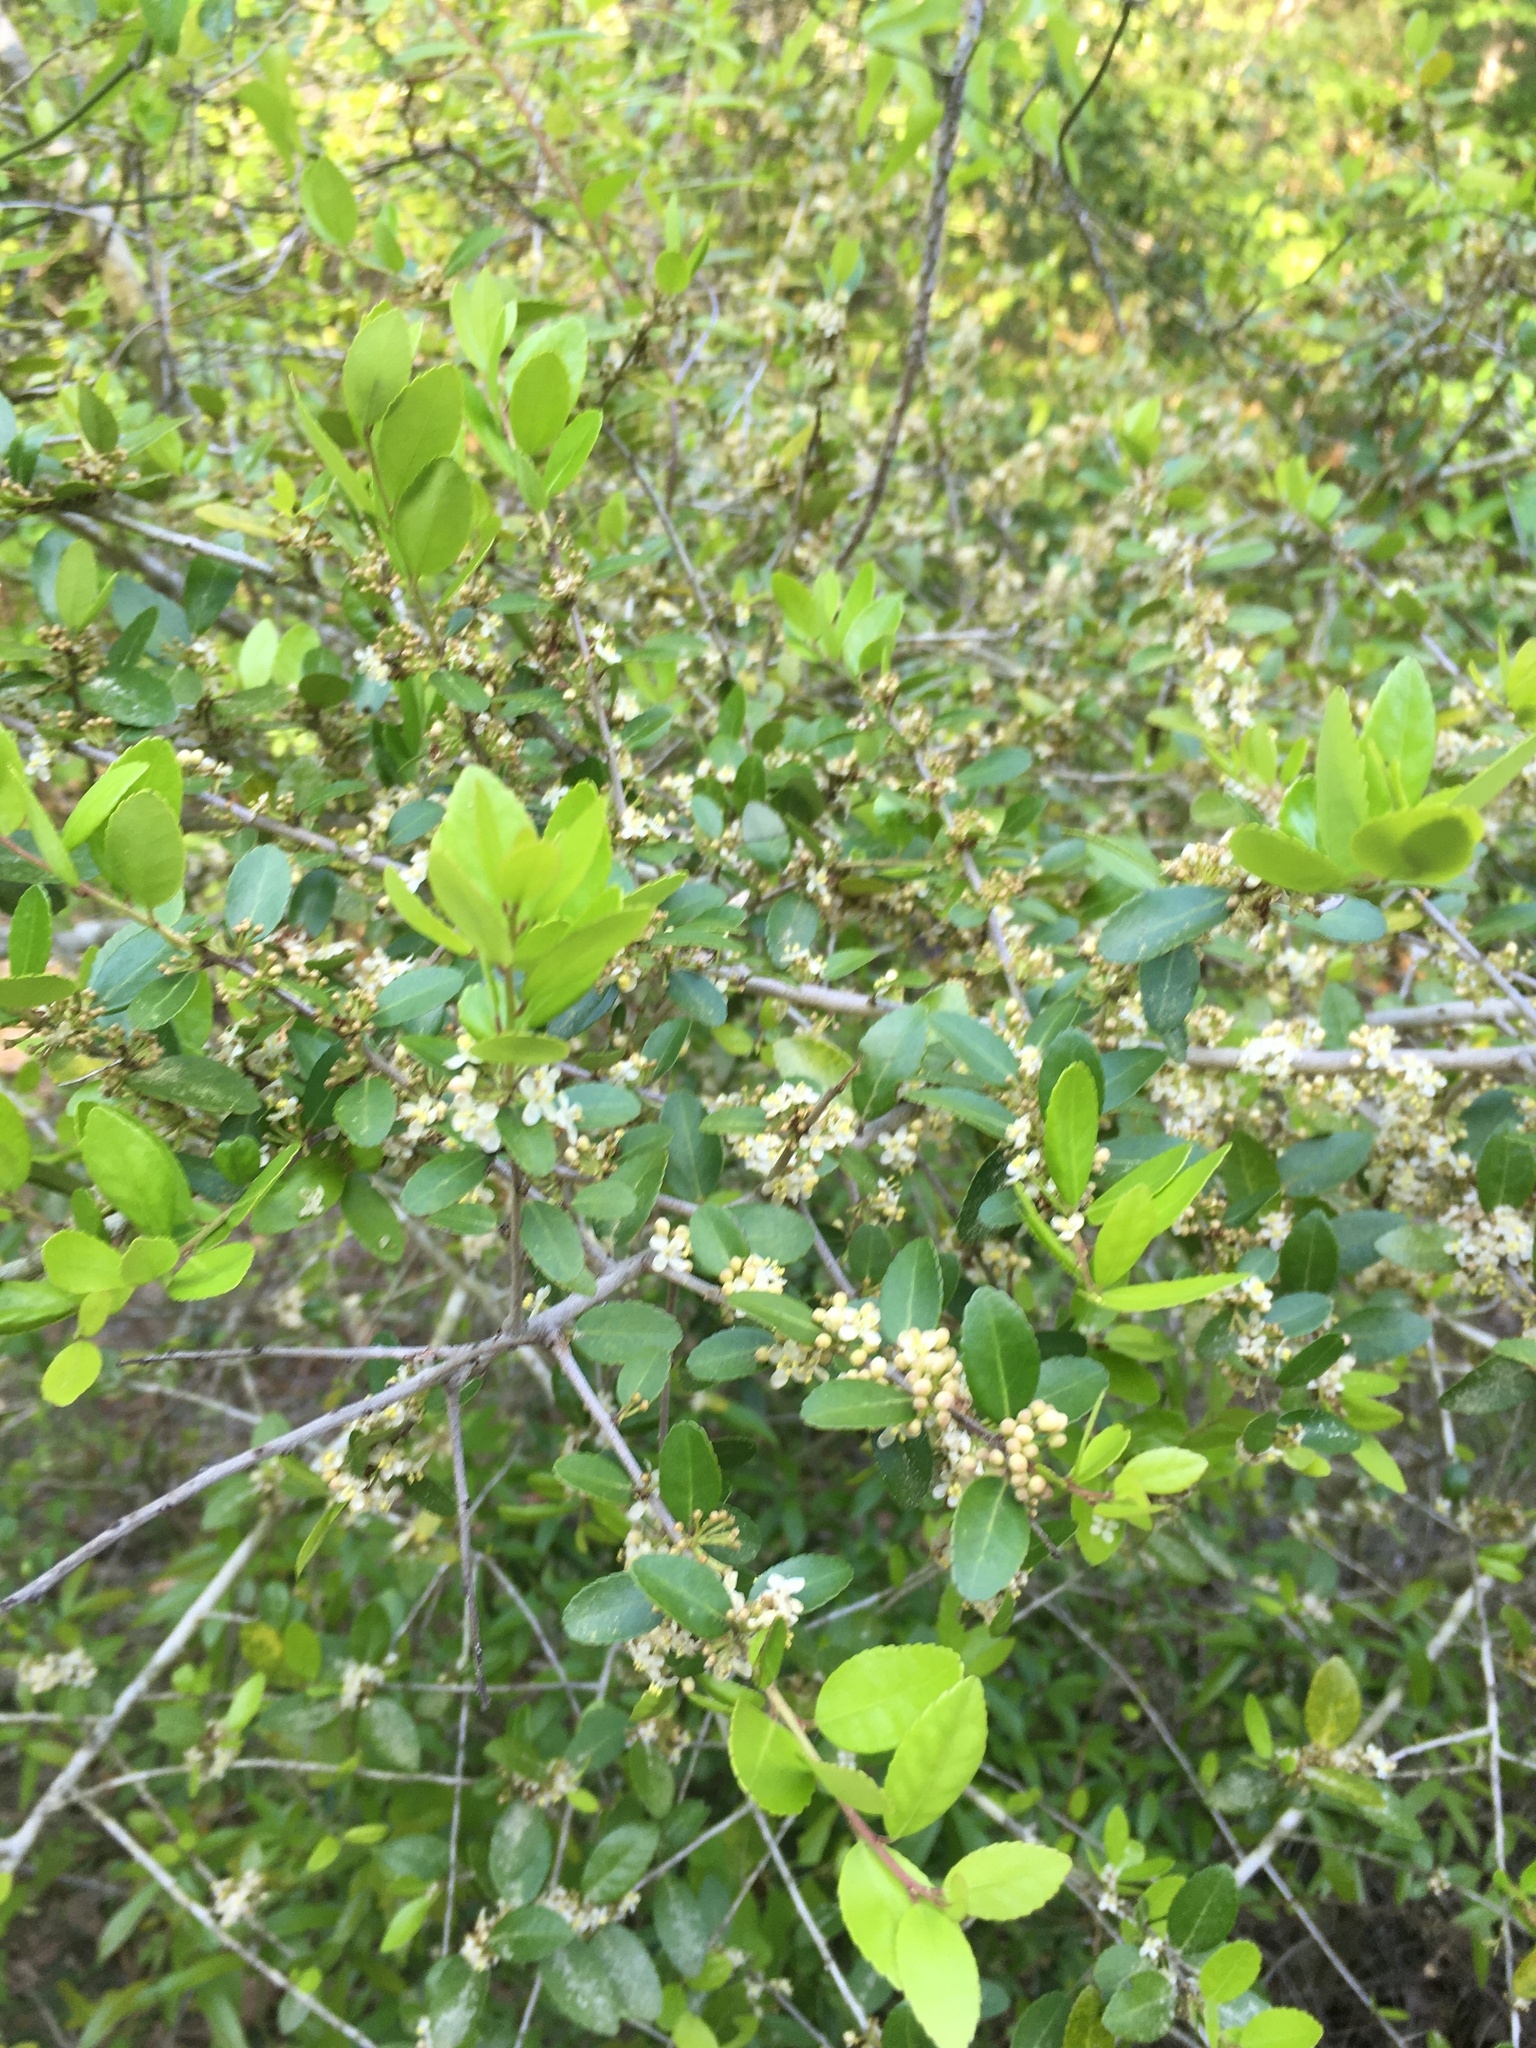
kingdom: Plantae
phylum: Tracheophyta
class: Magnoliopsida
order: Aquifoliales
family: Aquifoliaceae
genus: Ilex
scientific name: Ilex vomitoria
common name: Yaupon holly
